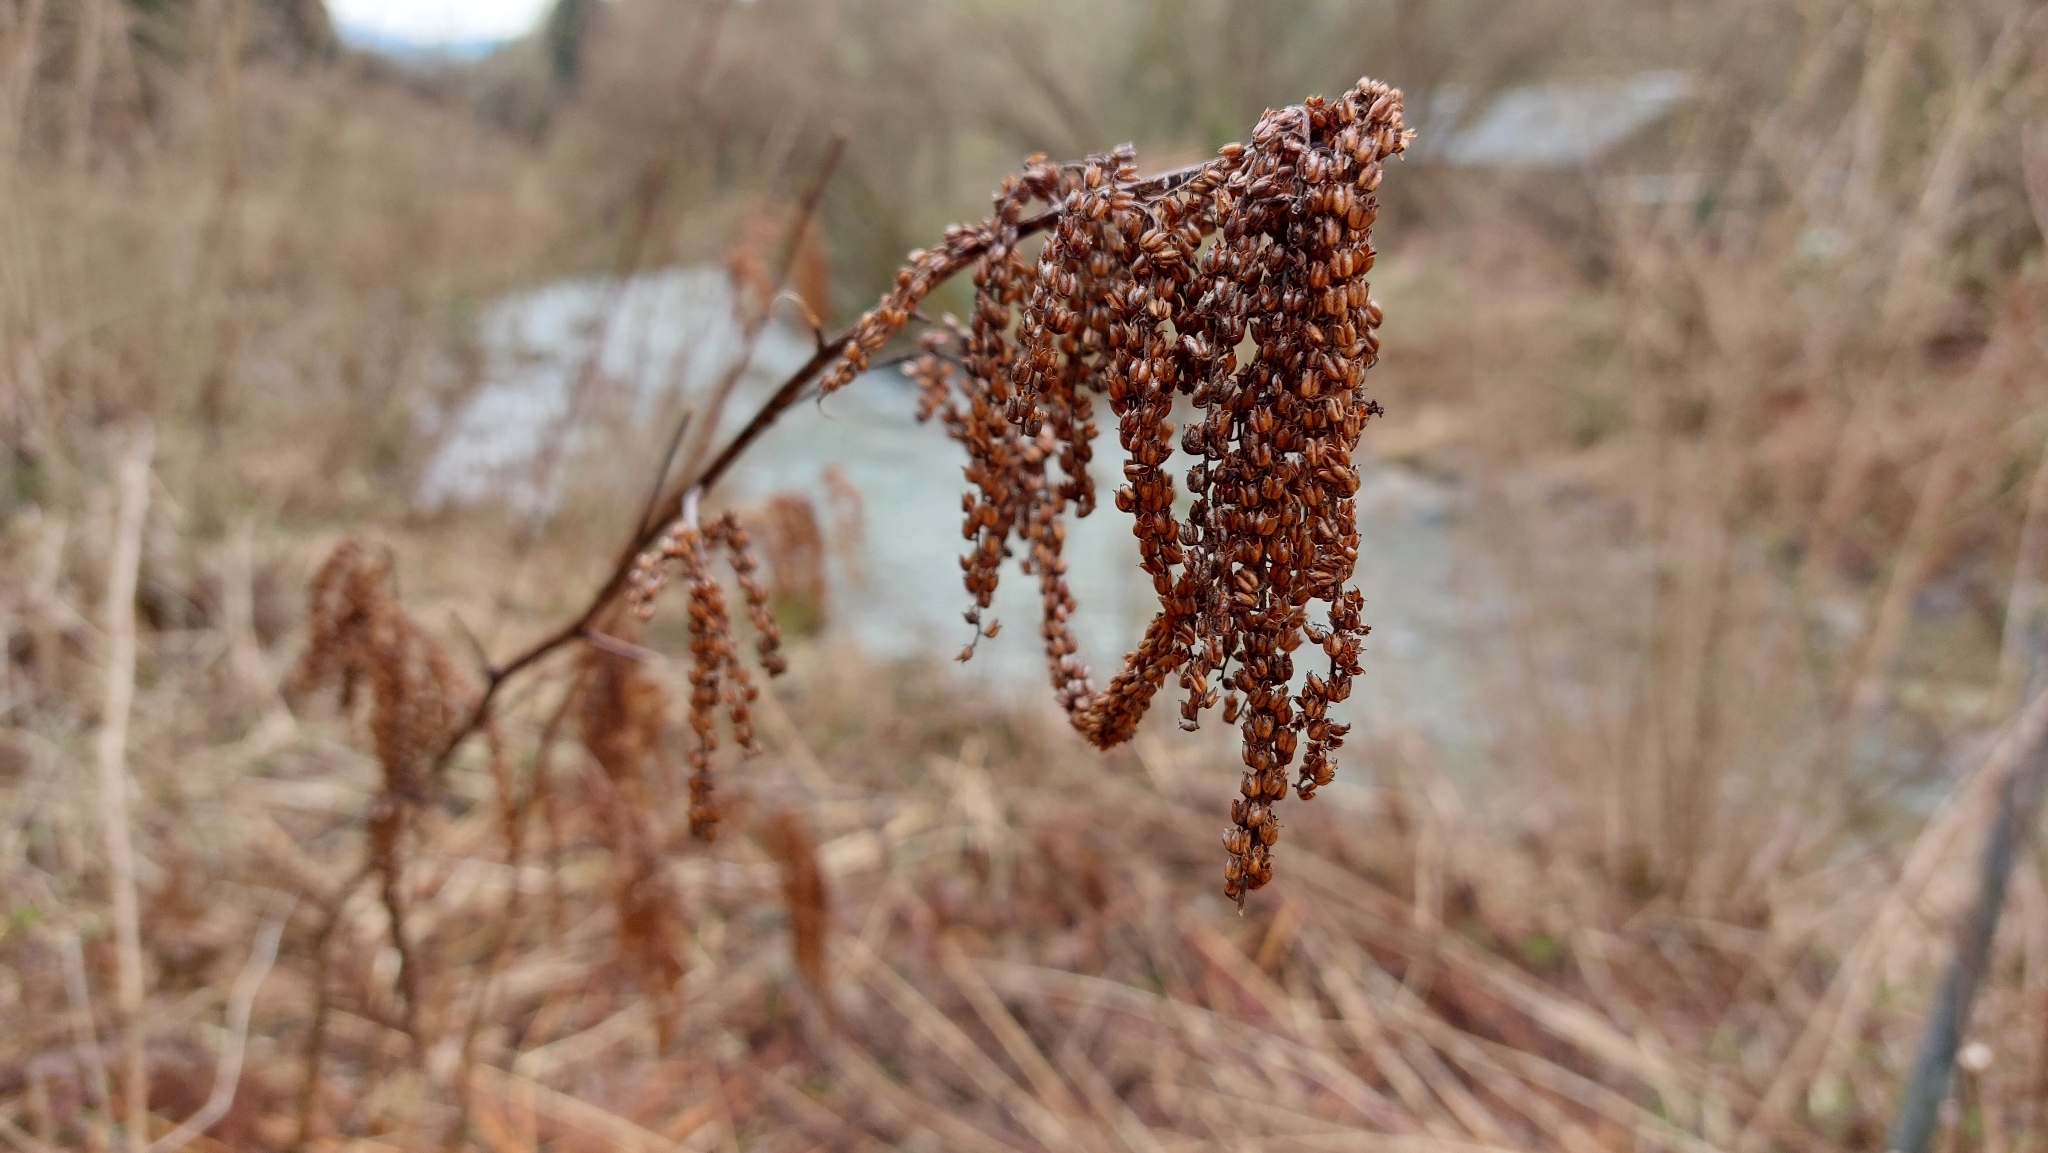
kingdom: Plantae
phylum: Tracheophyta
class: Magnoliopsida
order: Rosales
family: Rosaceae
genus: Aruncus
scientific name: Aruncus dioicus
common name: Buck's-beard
